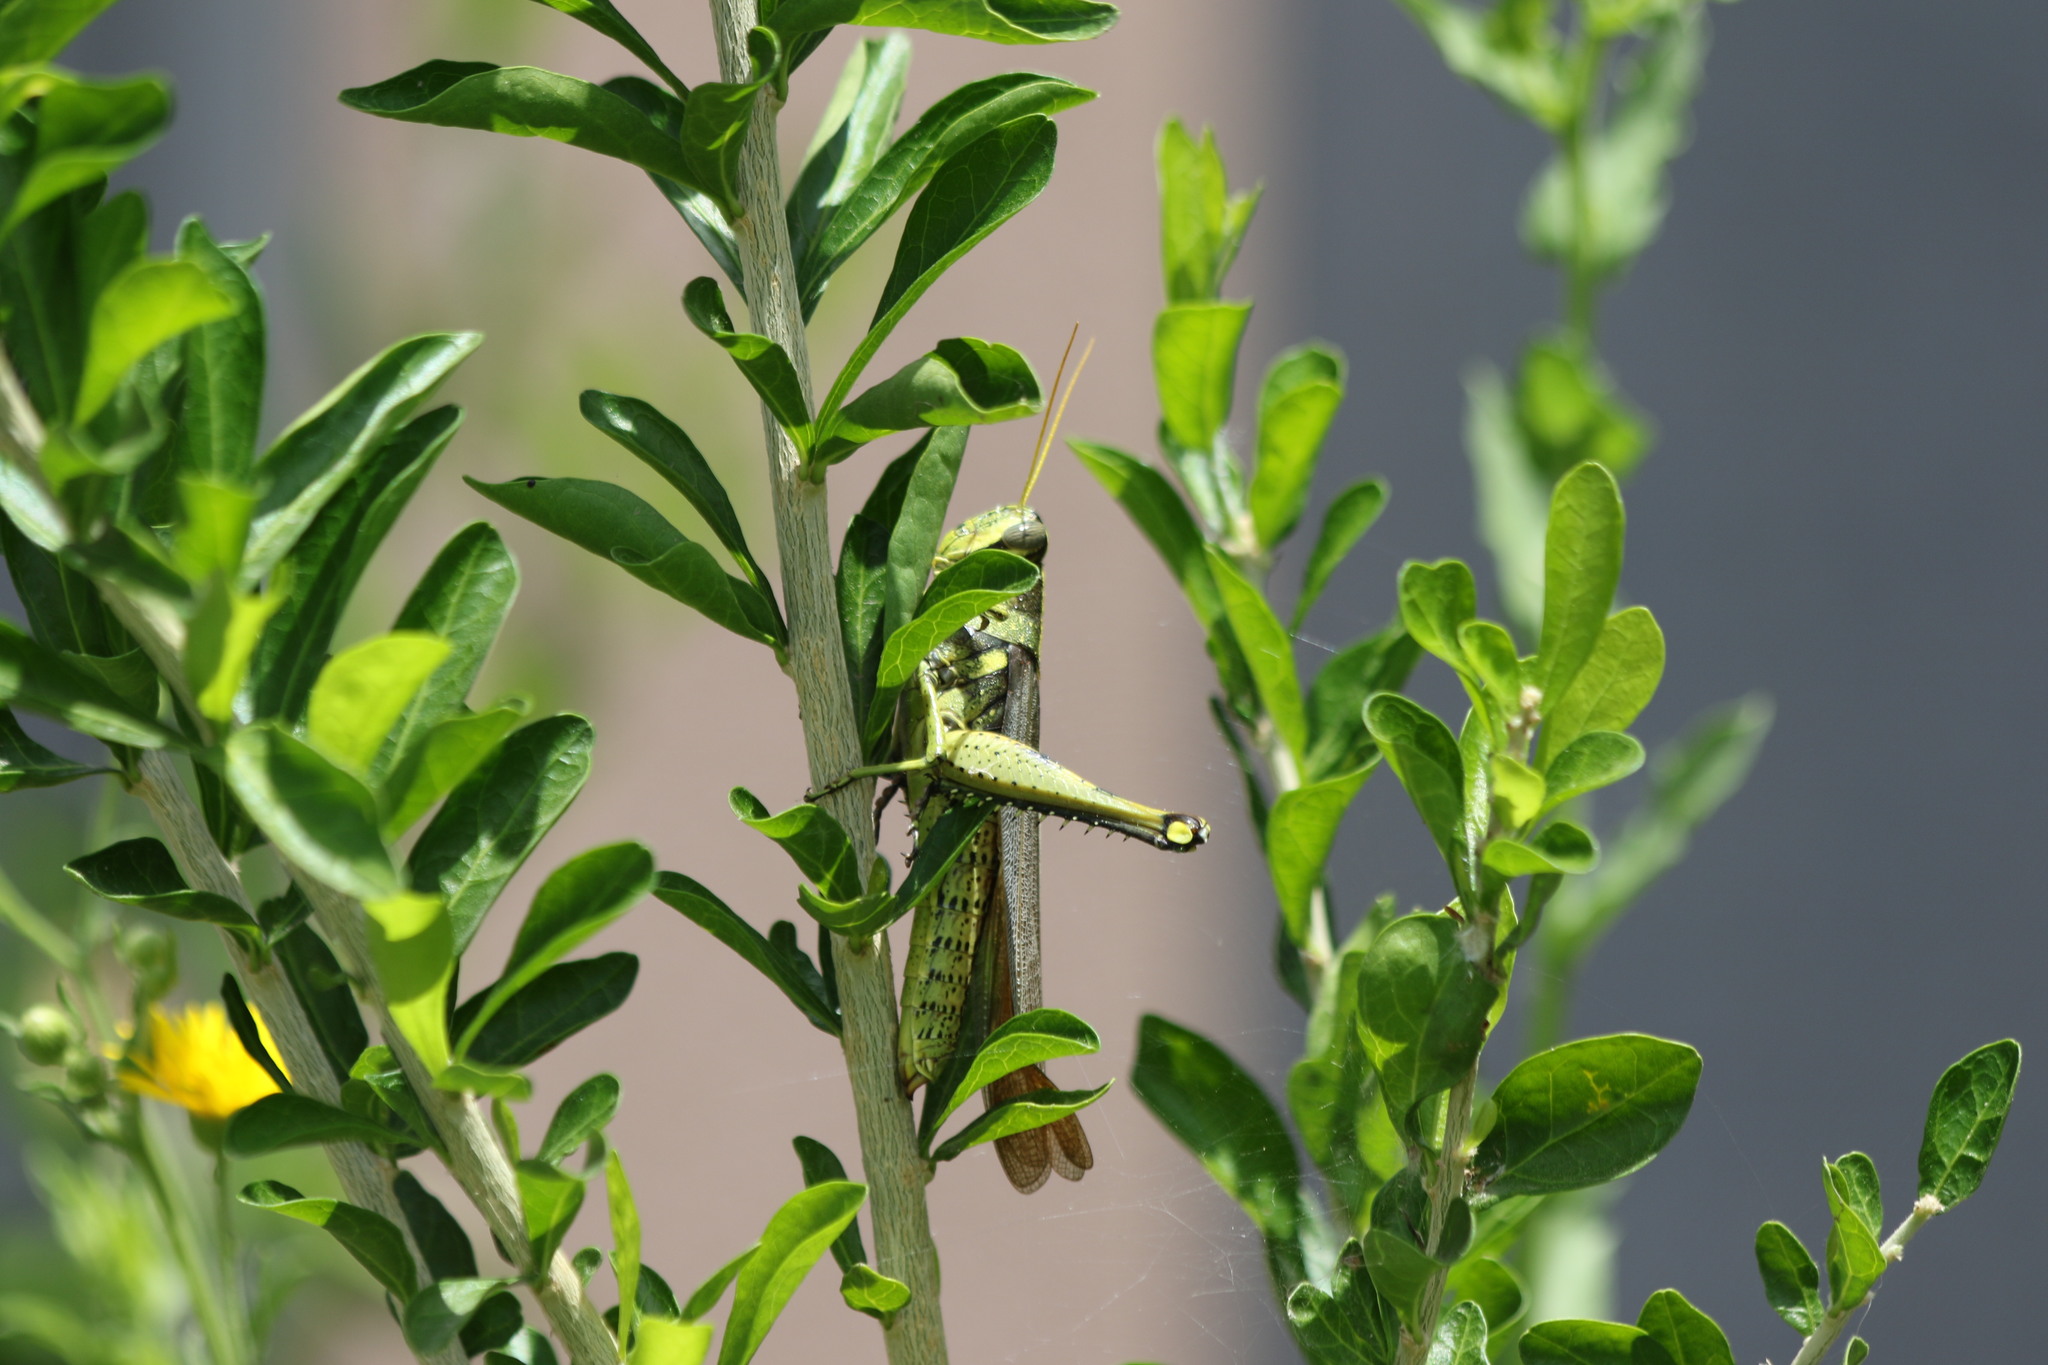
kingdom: Animalia
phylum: Arthropoda
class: Insecta
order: Orthoptera
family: Acrididae
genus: Schistocerca
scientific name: Schistocerca obscura
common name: Obscure bird grasshopper
